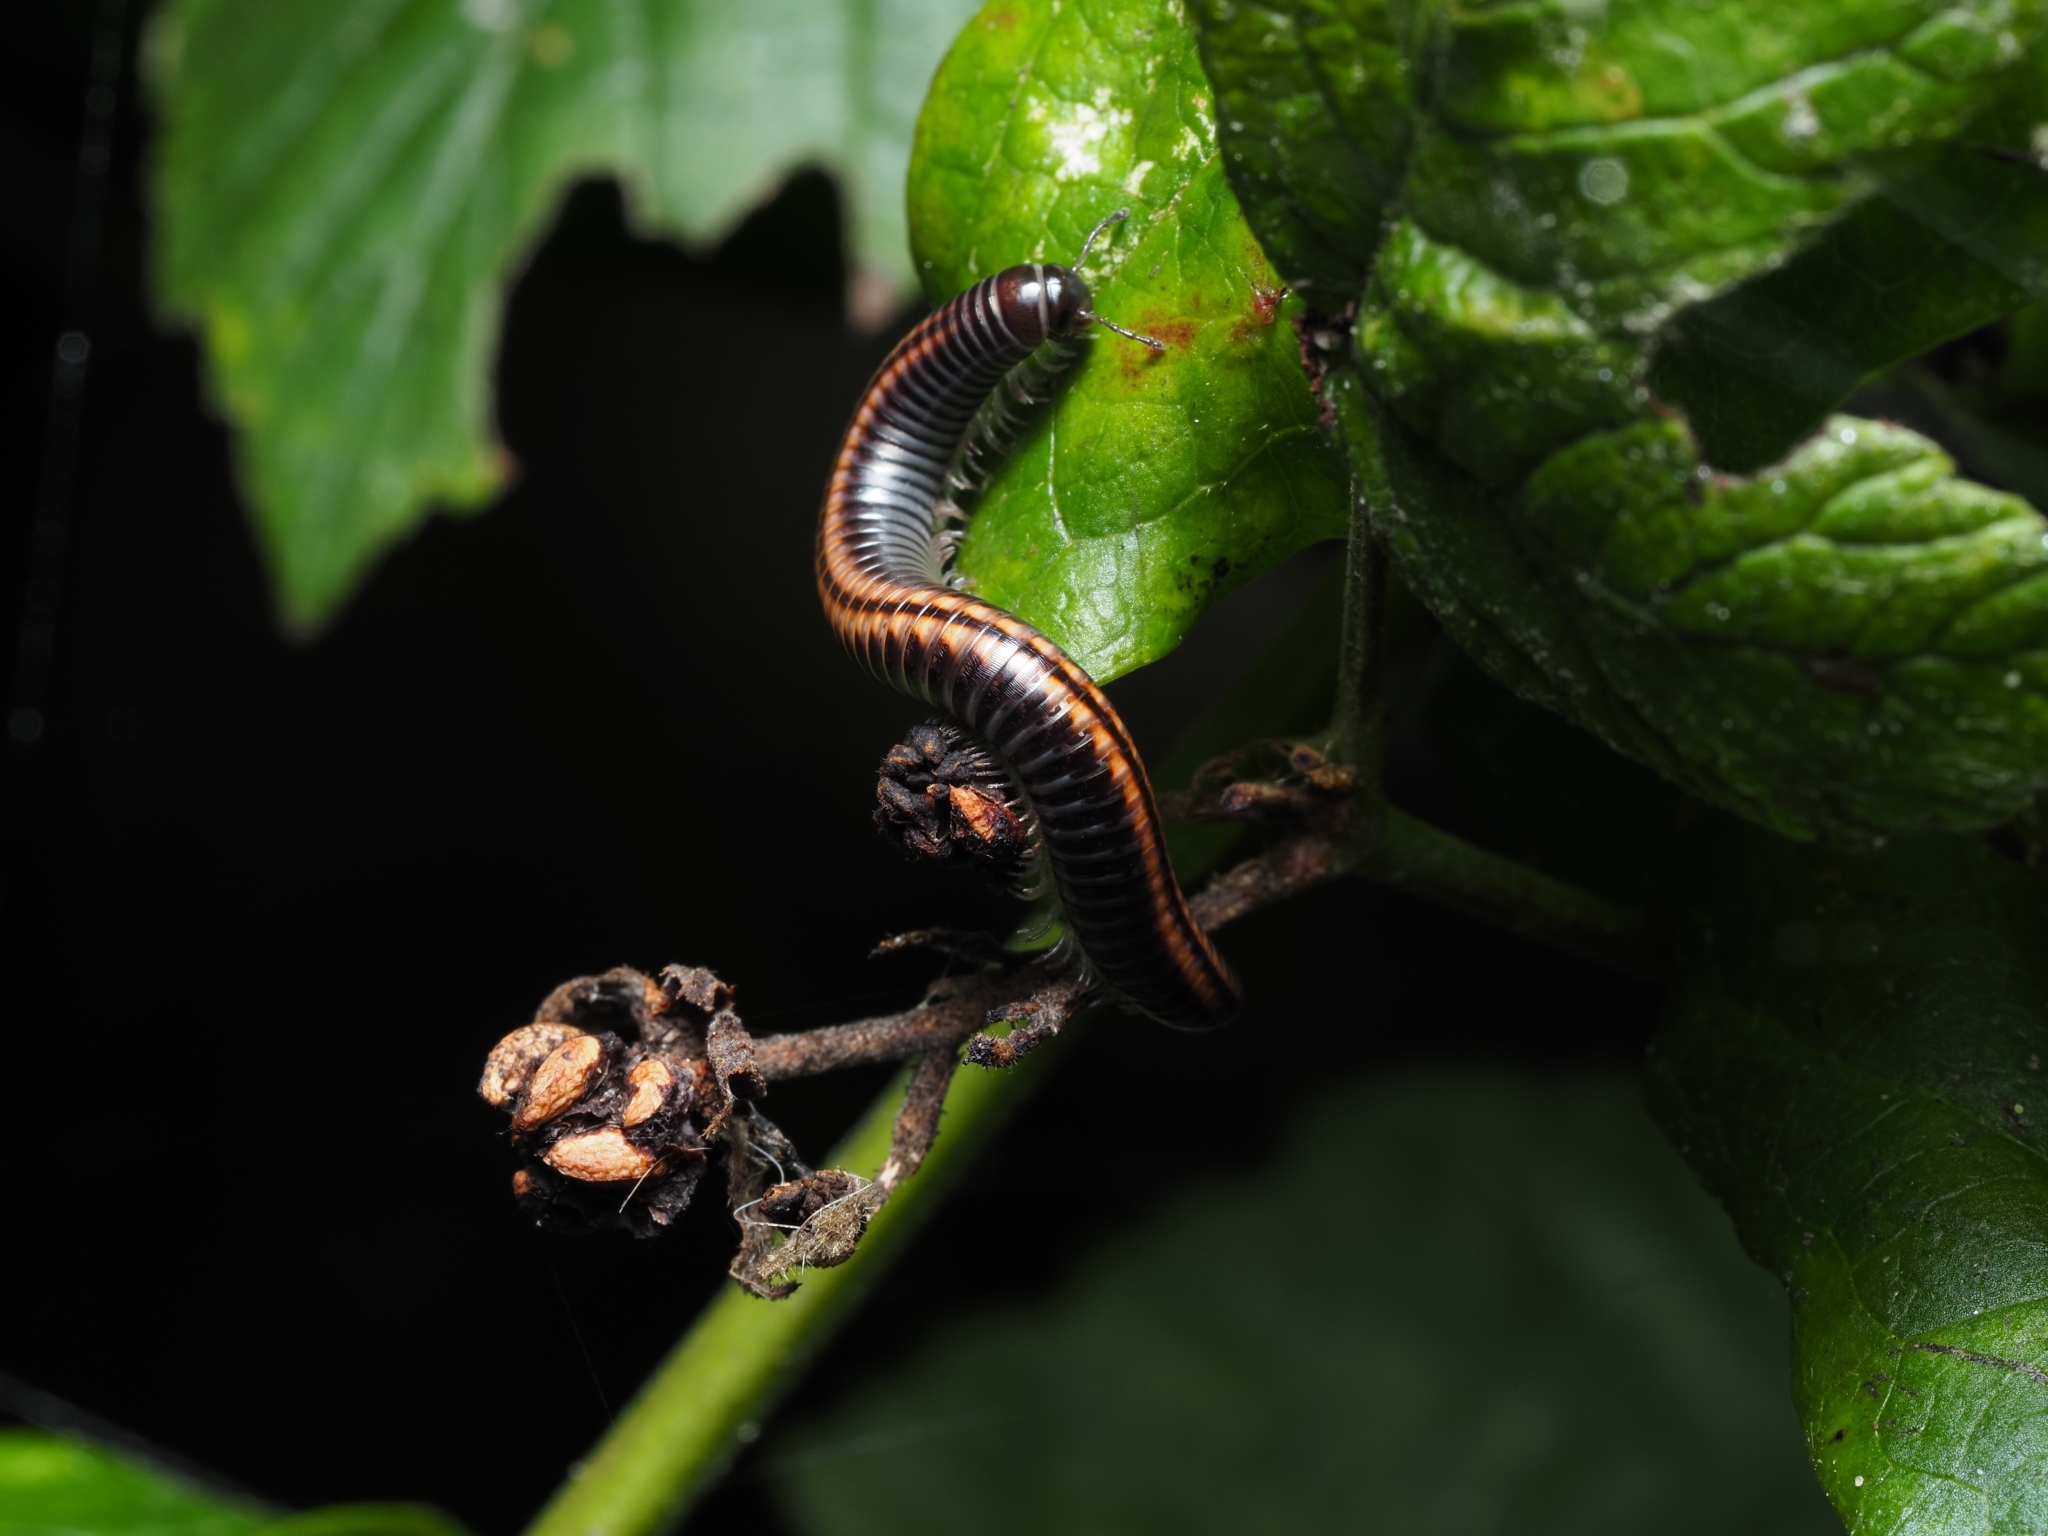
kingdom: Animalia
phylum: Arthropoda
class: Diplopoda
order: Julida
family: Julidae
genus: Ommatoiulus
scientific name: Ommatoiulus sabulosus
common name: Striped millipede
